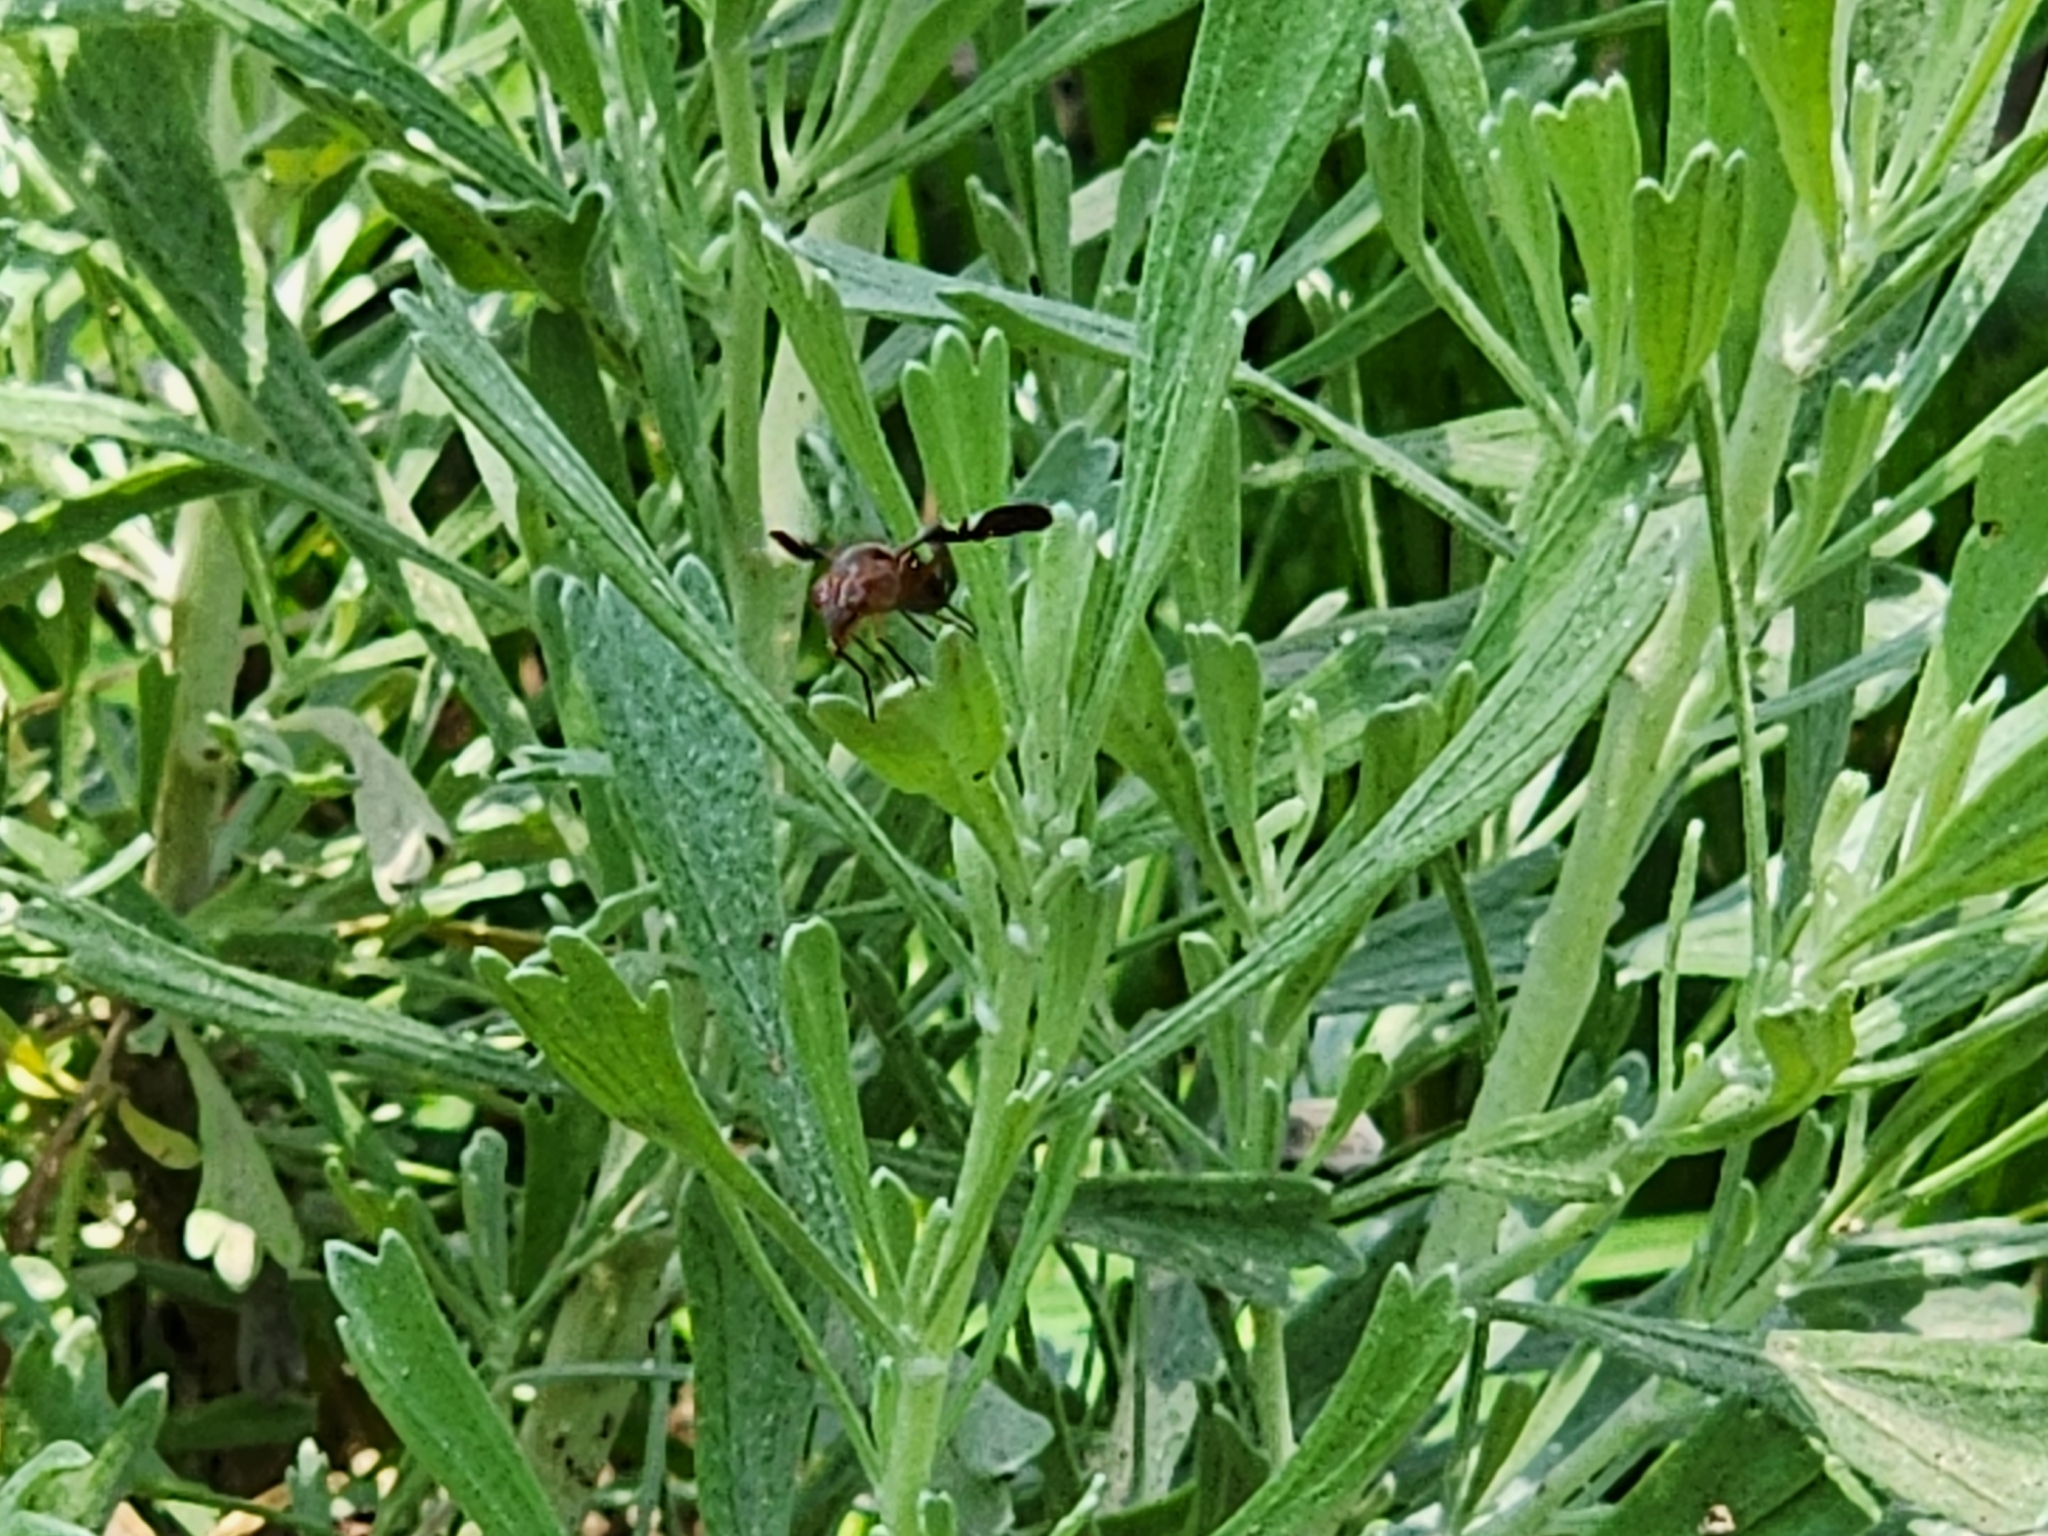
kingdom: Animalia
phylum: Arthropoda
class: Insecta
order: Diptera
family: Ulidiidae
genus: Delphinia
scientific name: Delphinia picta
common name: Common picture-winged fly
